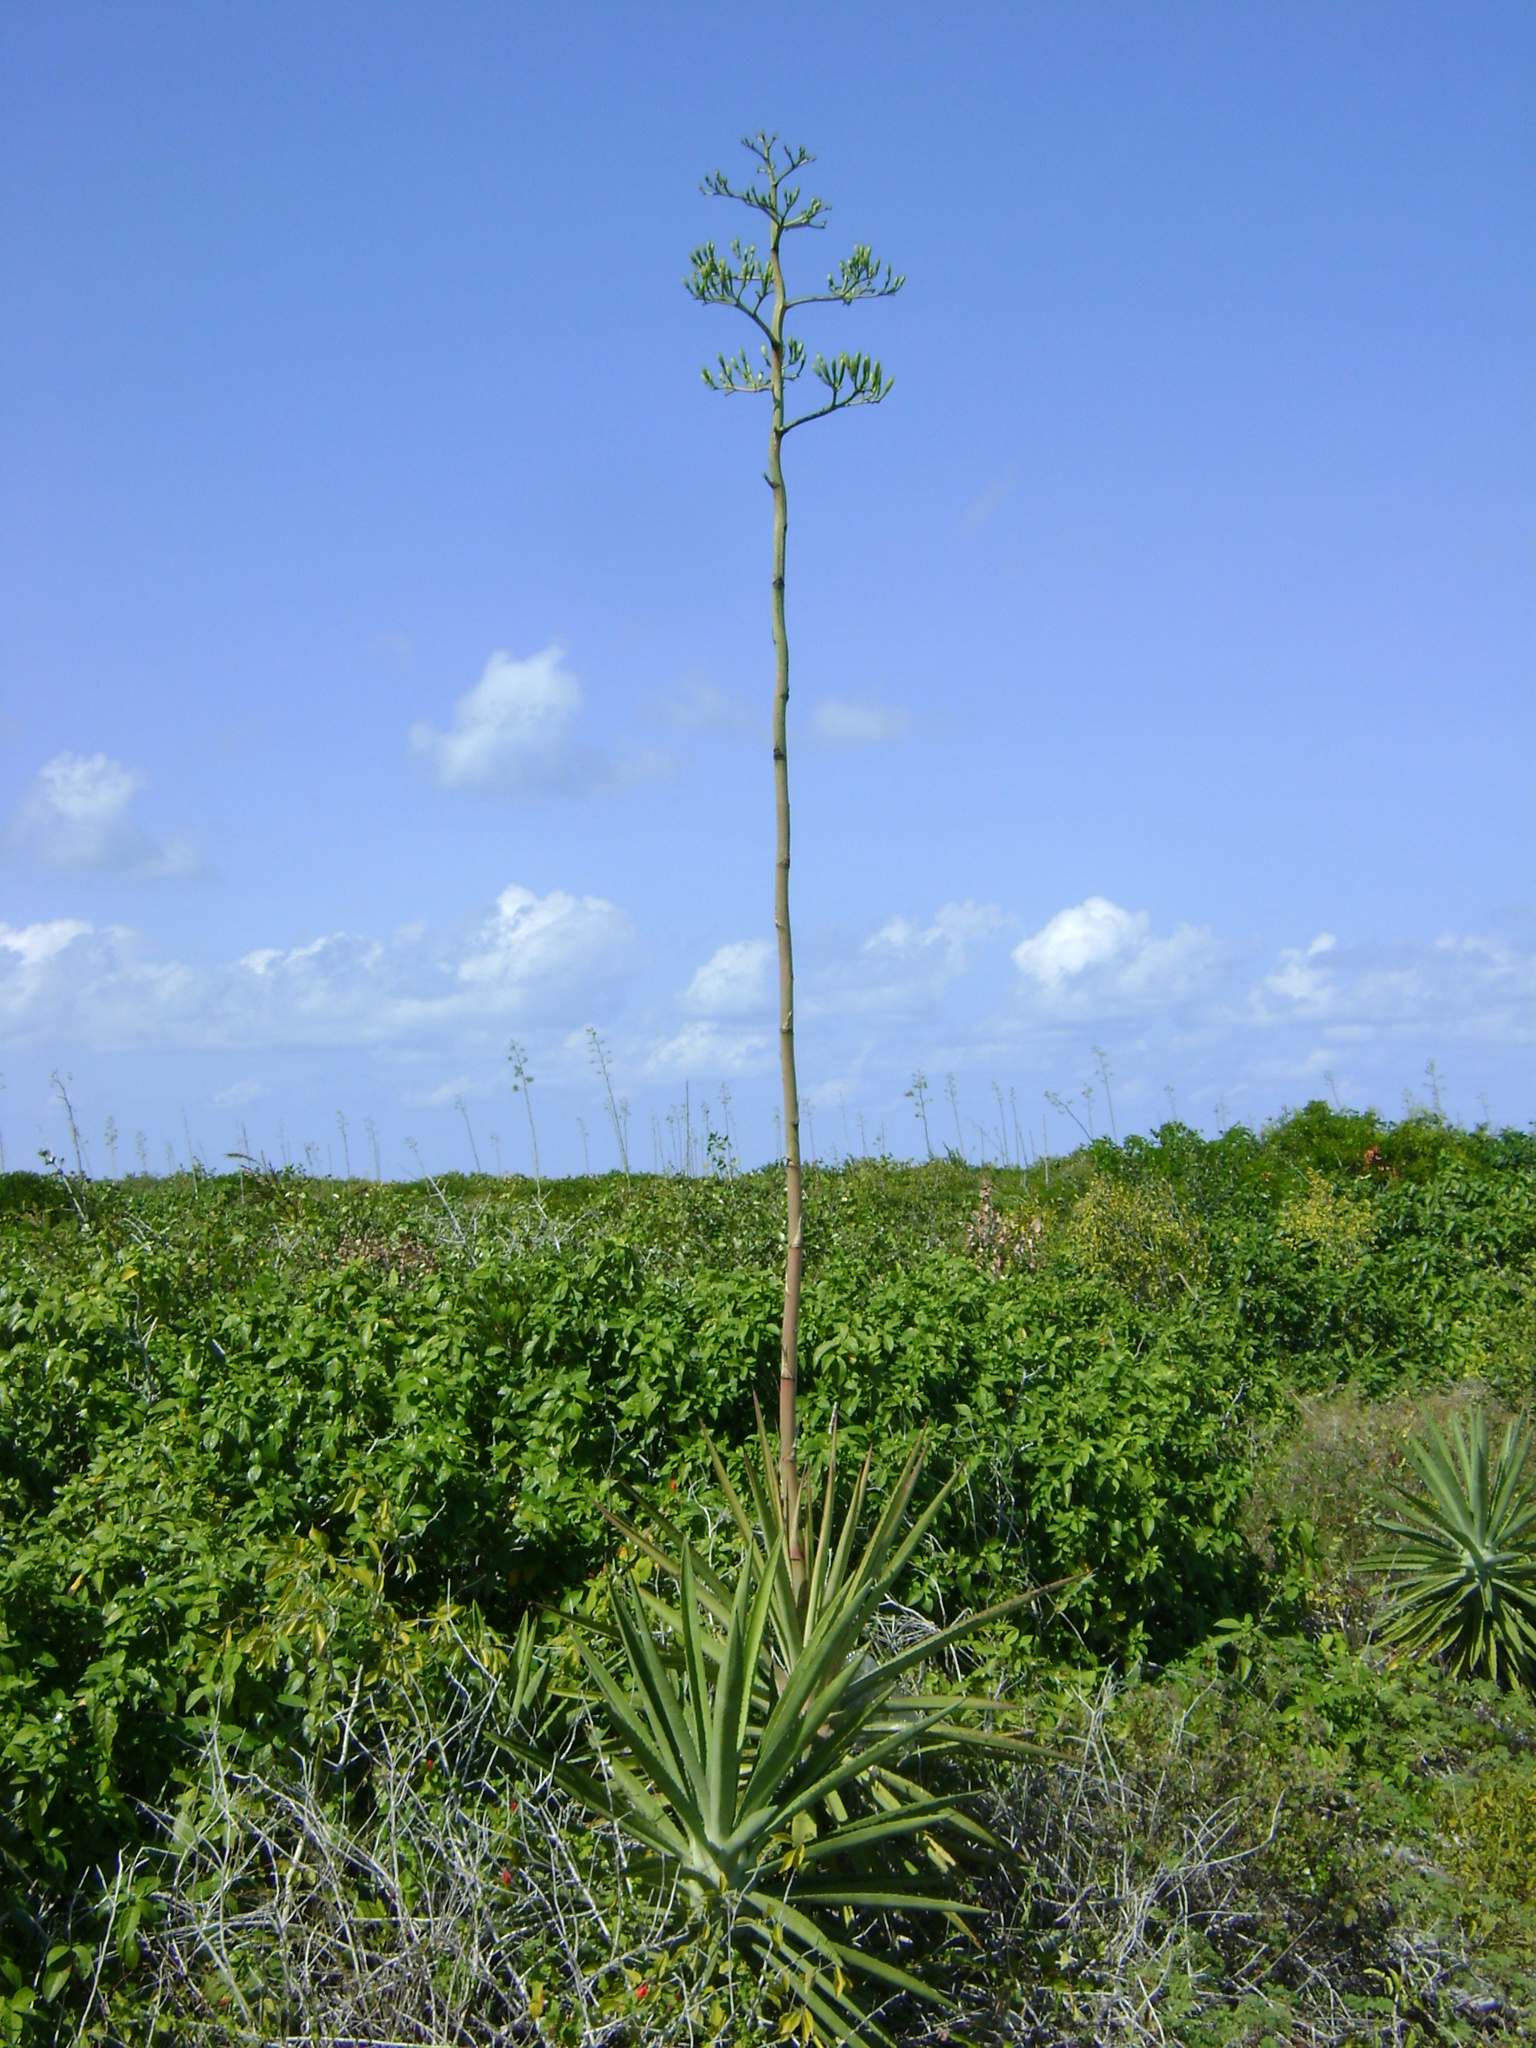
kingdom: Plantae
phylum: Tracheophyta
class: Liliopsida
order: Asparagales
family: Asparagaceae
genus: Agave
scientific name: Agave vivipara
